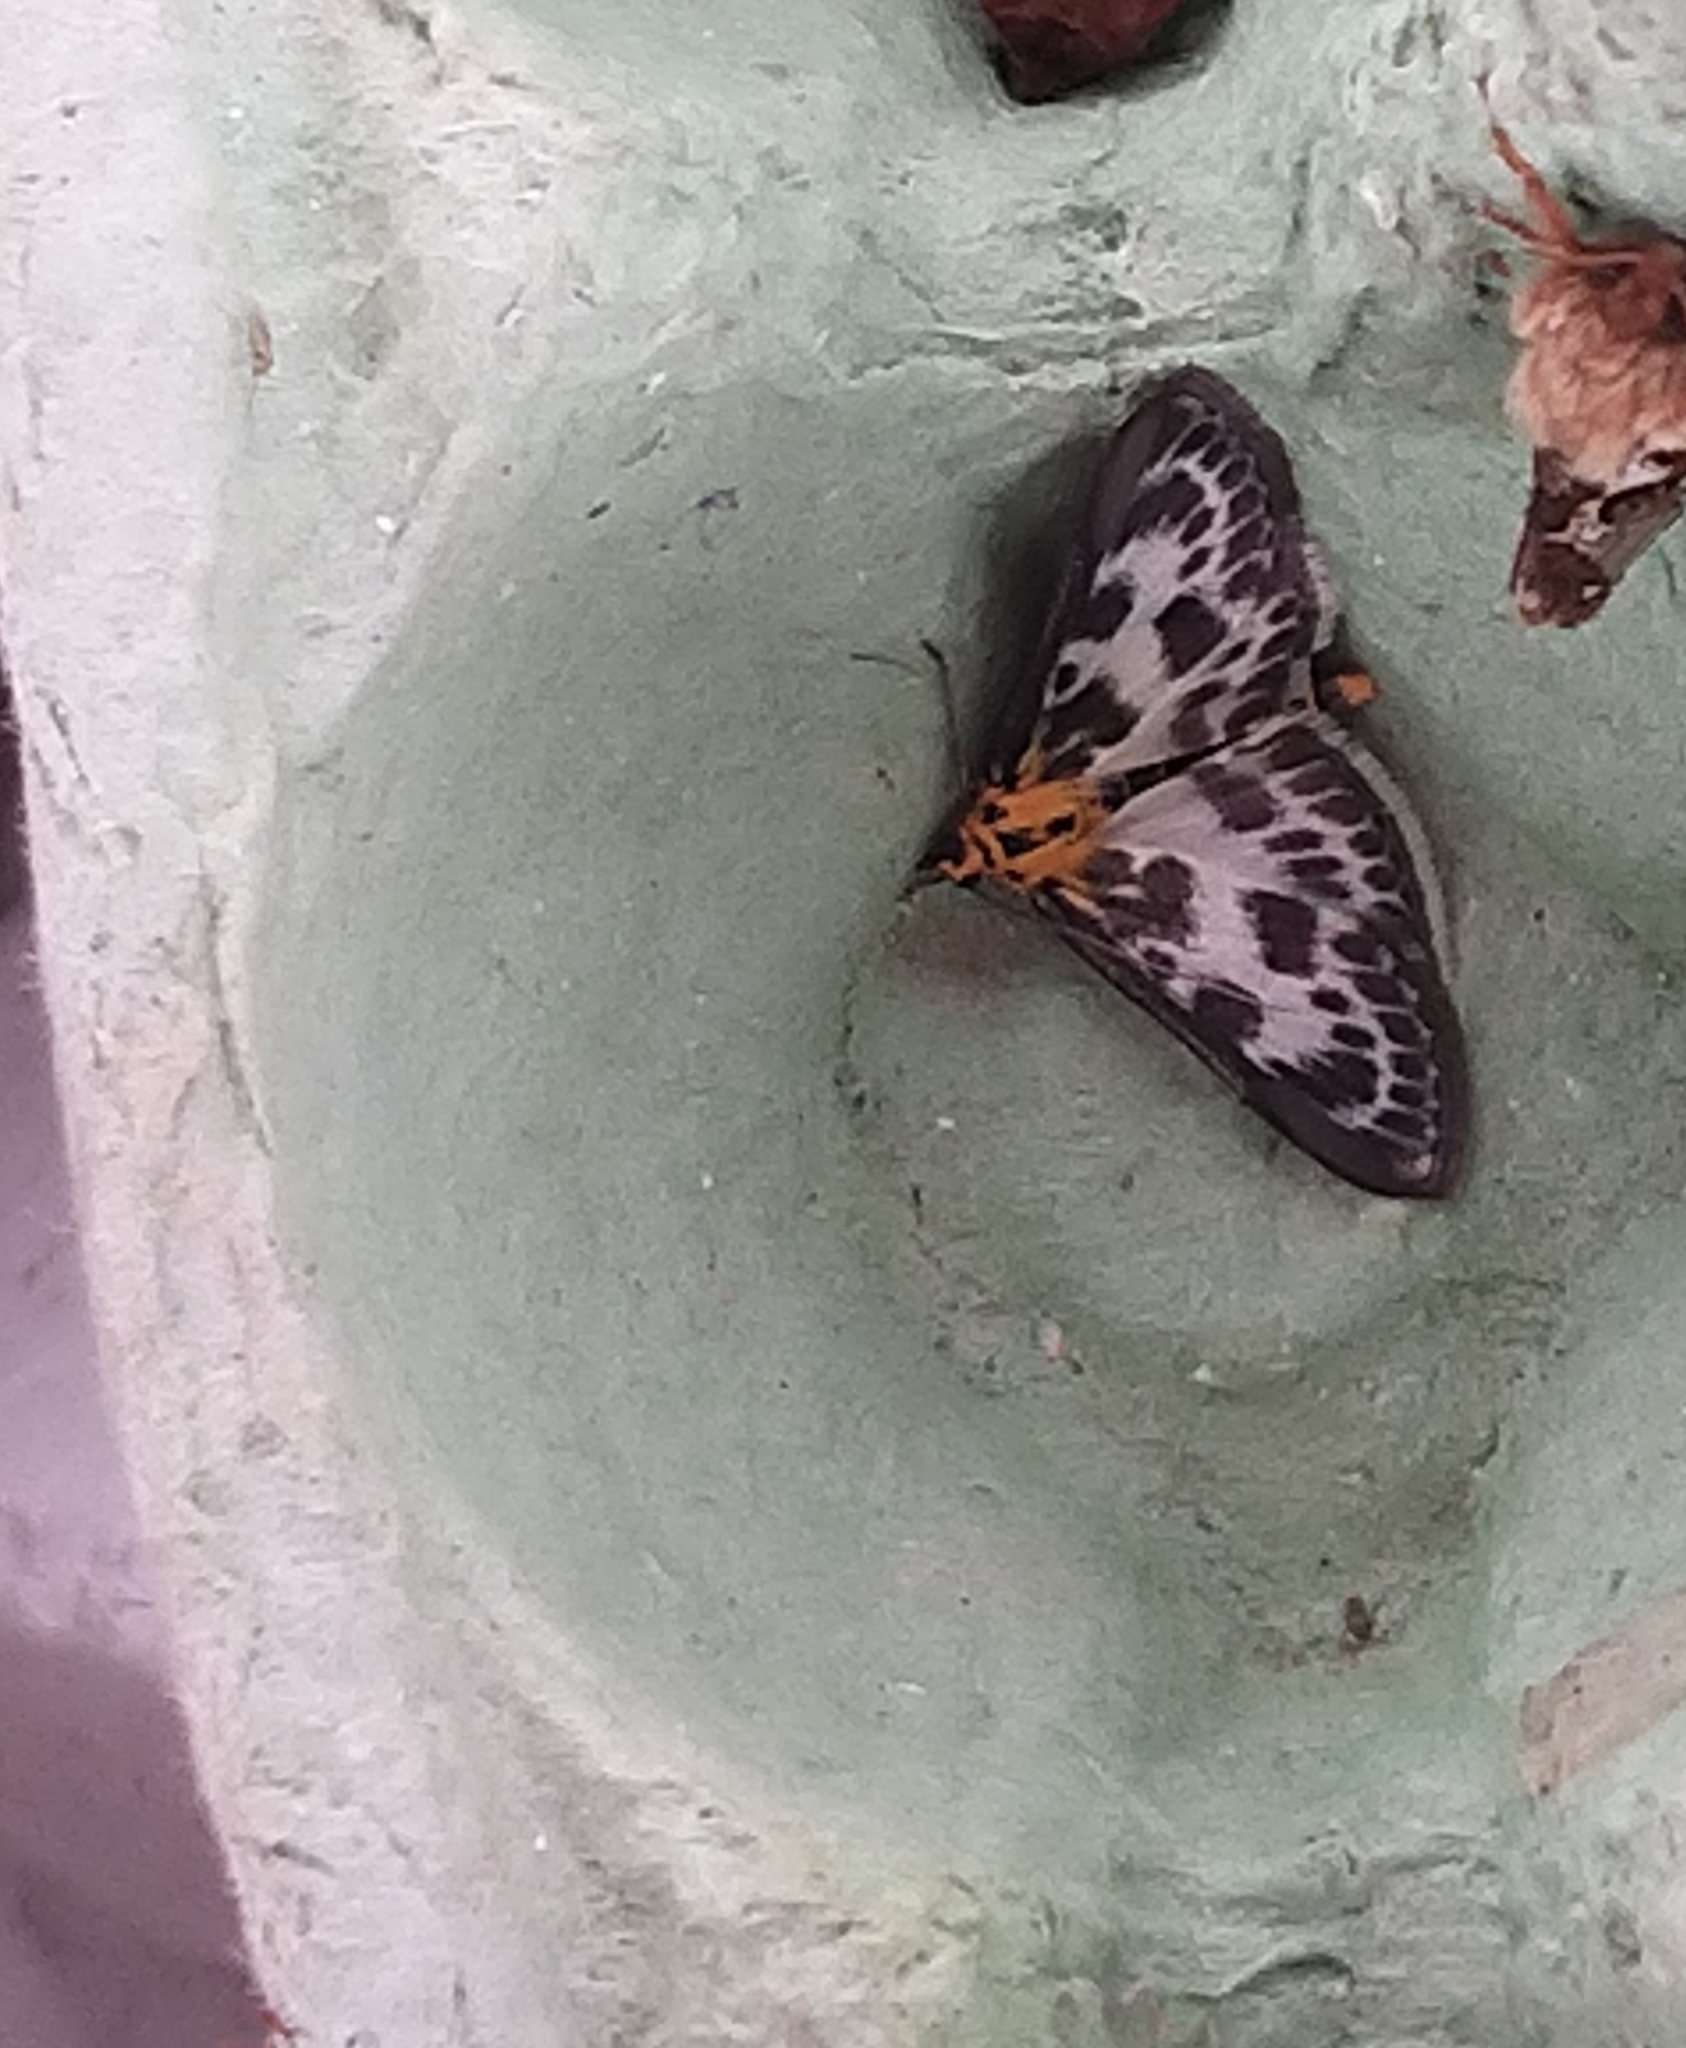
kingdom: Animalia
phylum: Arthropoda
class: Insecta
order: Lepidoptera
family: Crambidae
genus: Anania
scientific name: Anania hortulata
